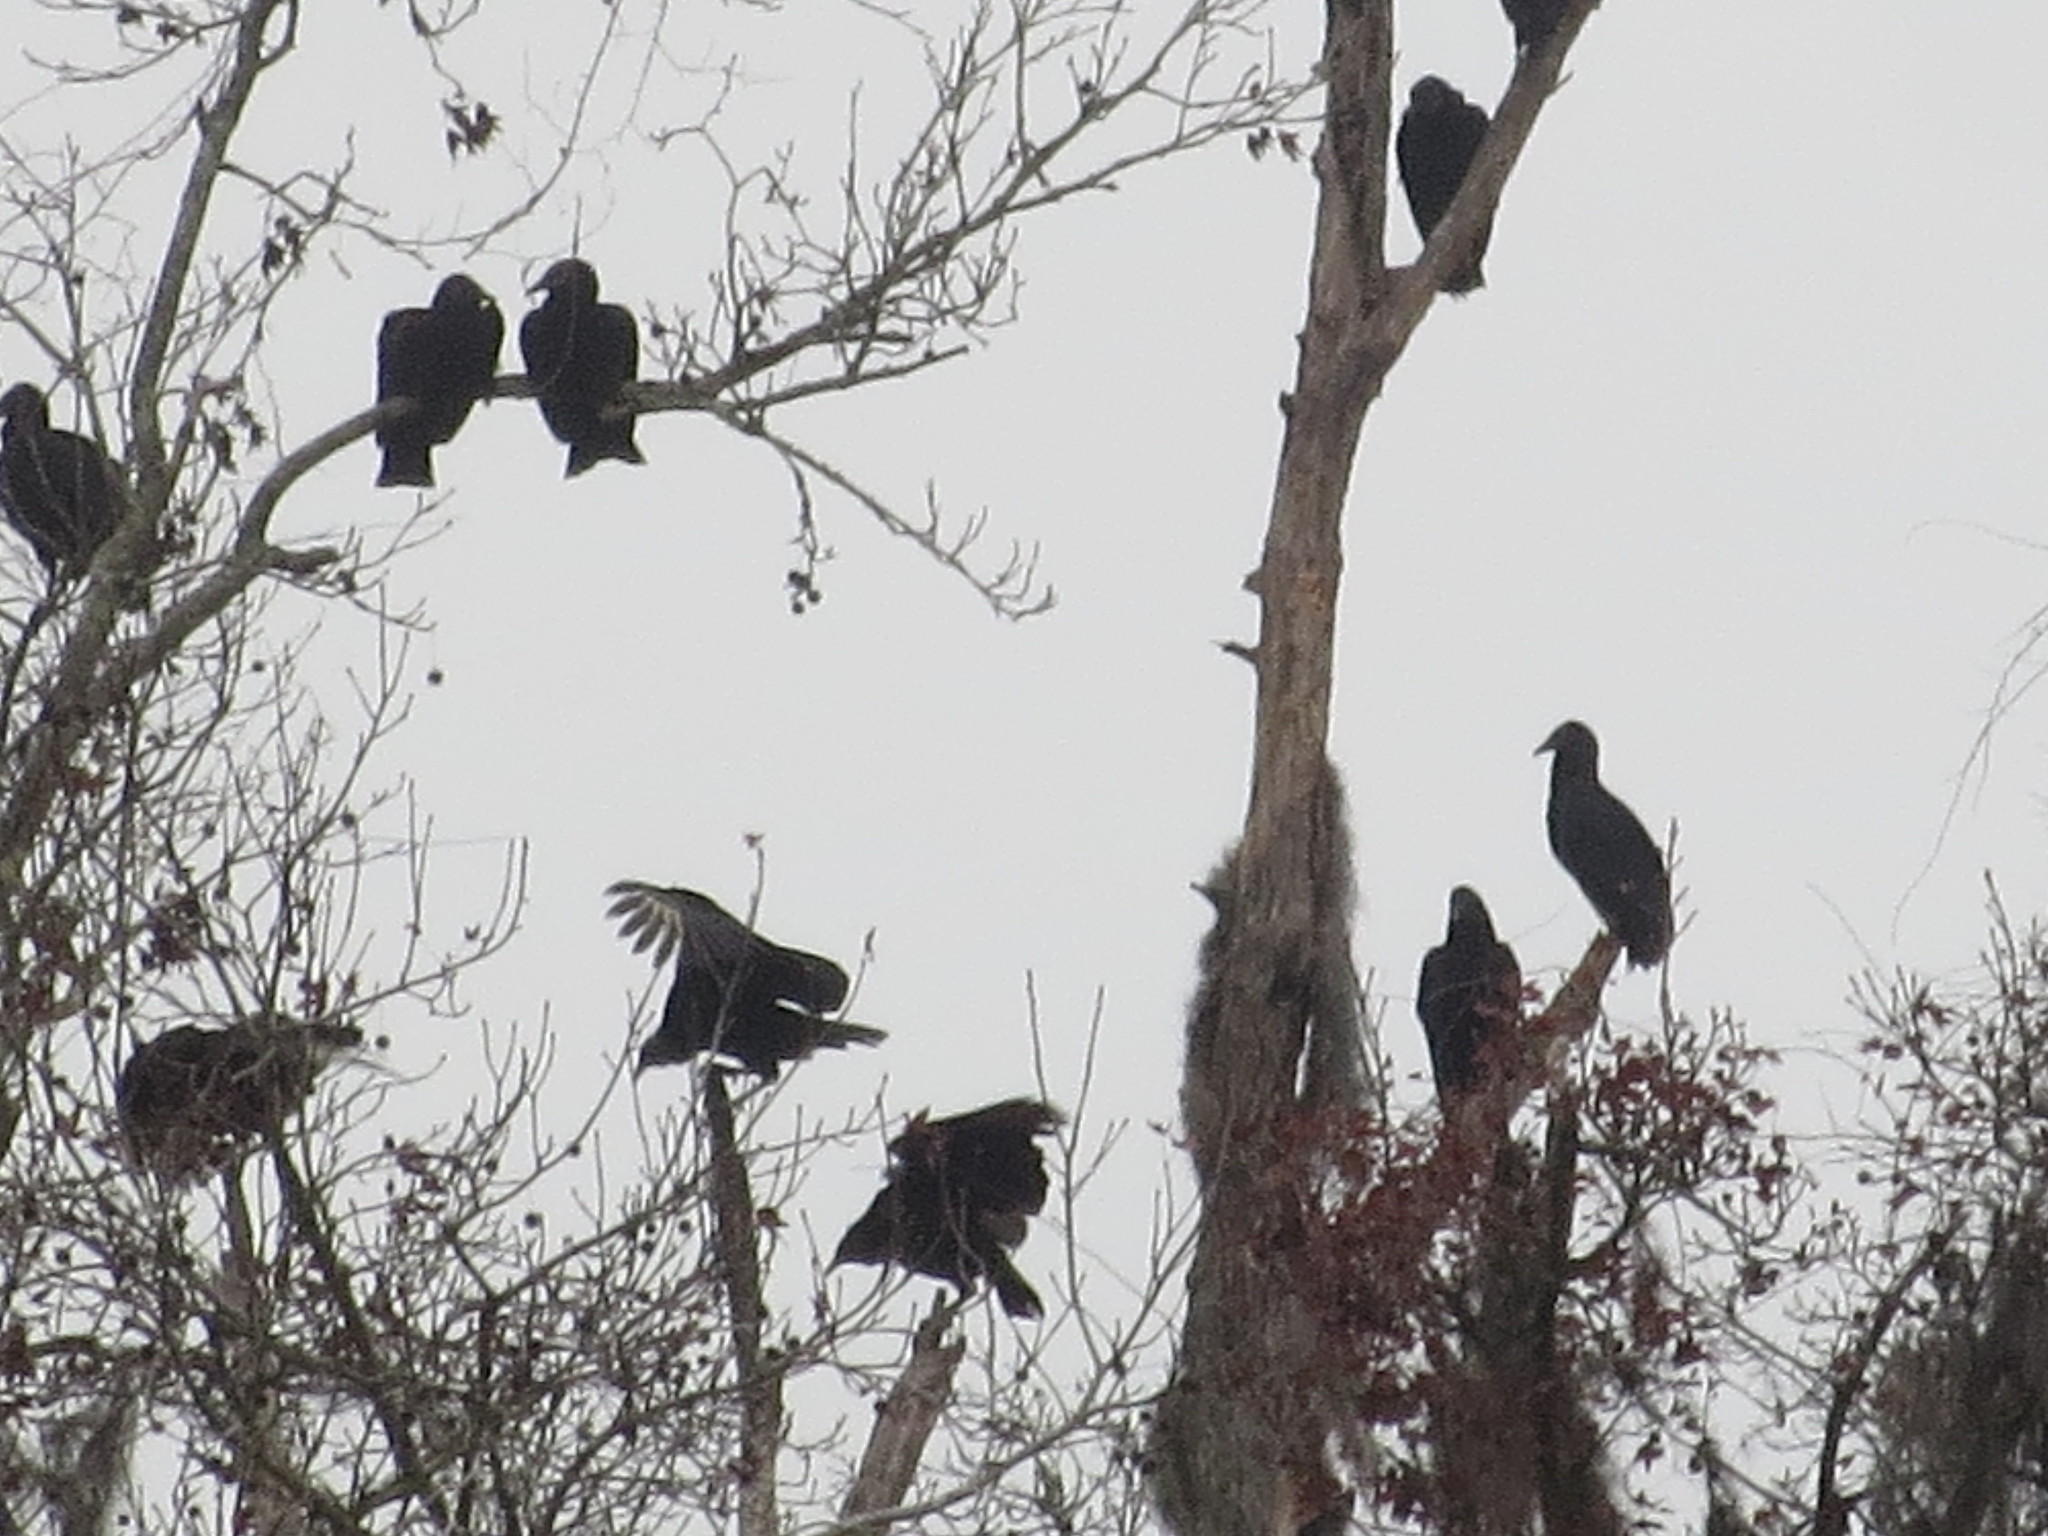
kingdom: Animalia
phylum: Chordata
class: Aves
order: Accipitriformes
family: Cathartidae
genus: Coragyps
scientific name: Coragyps atratus
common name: Black vulture
